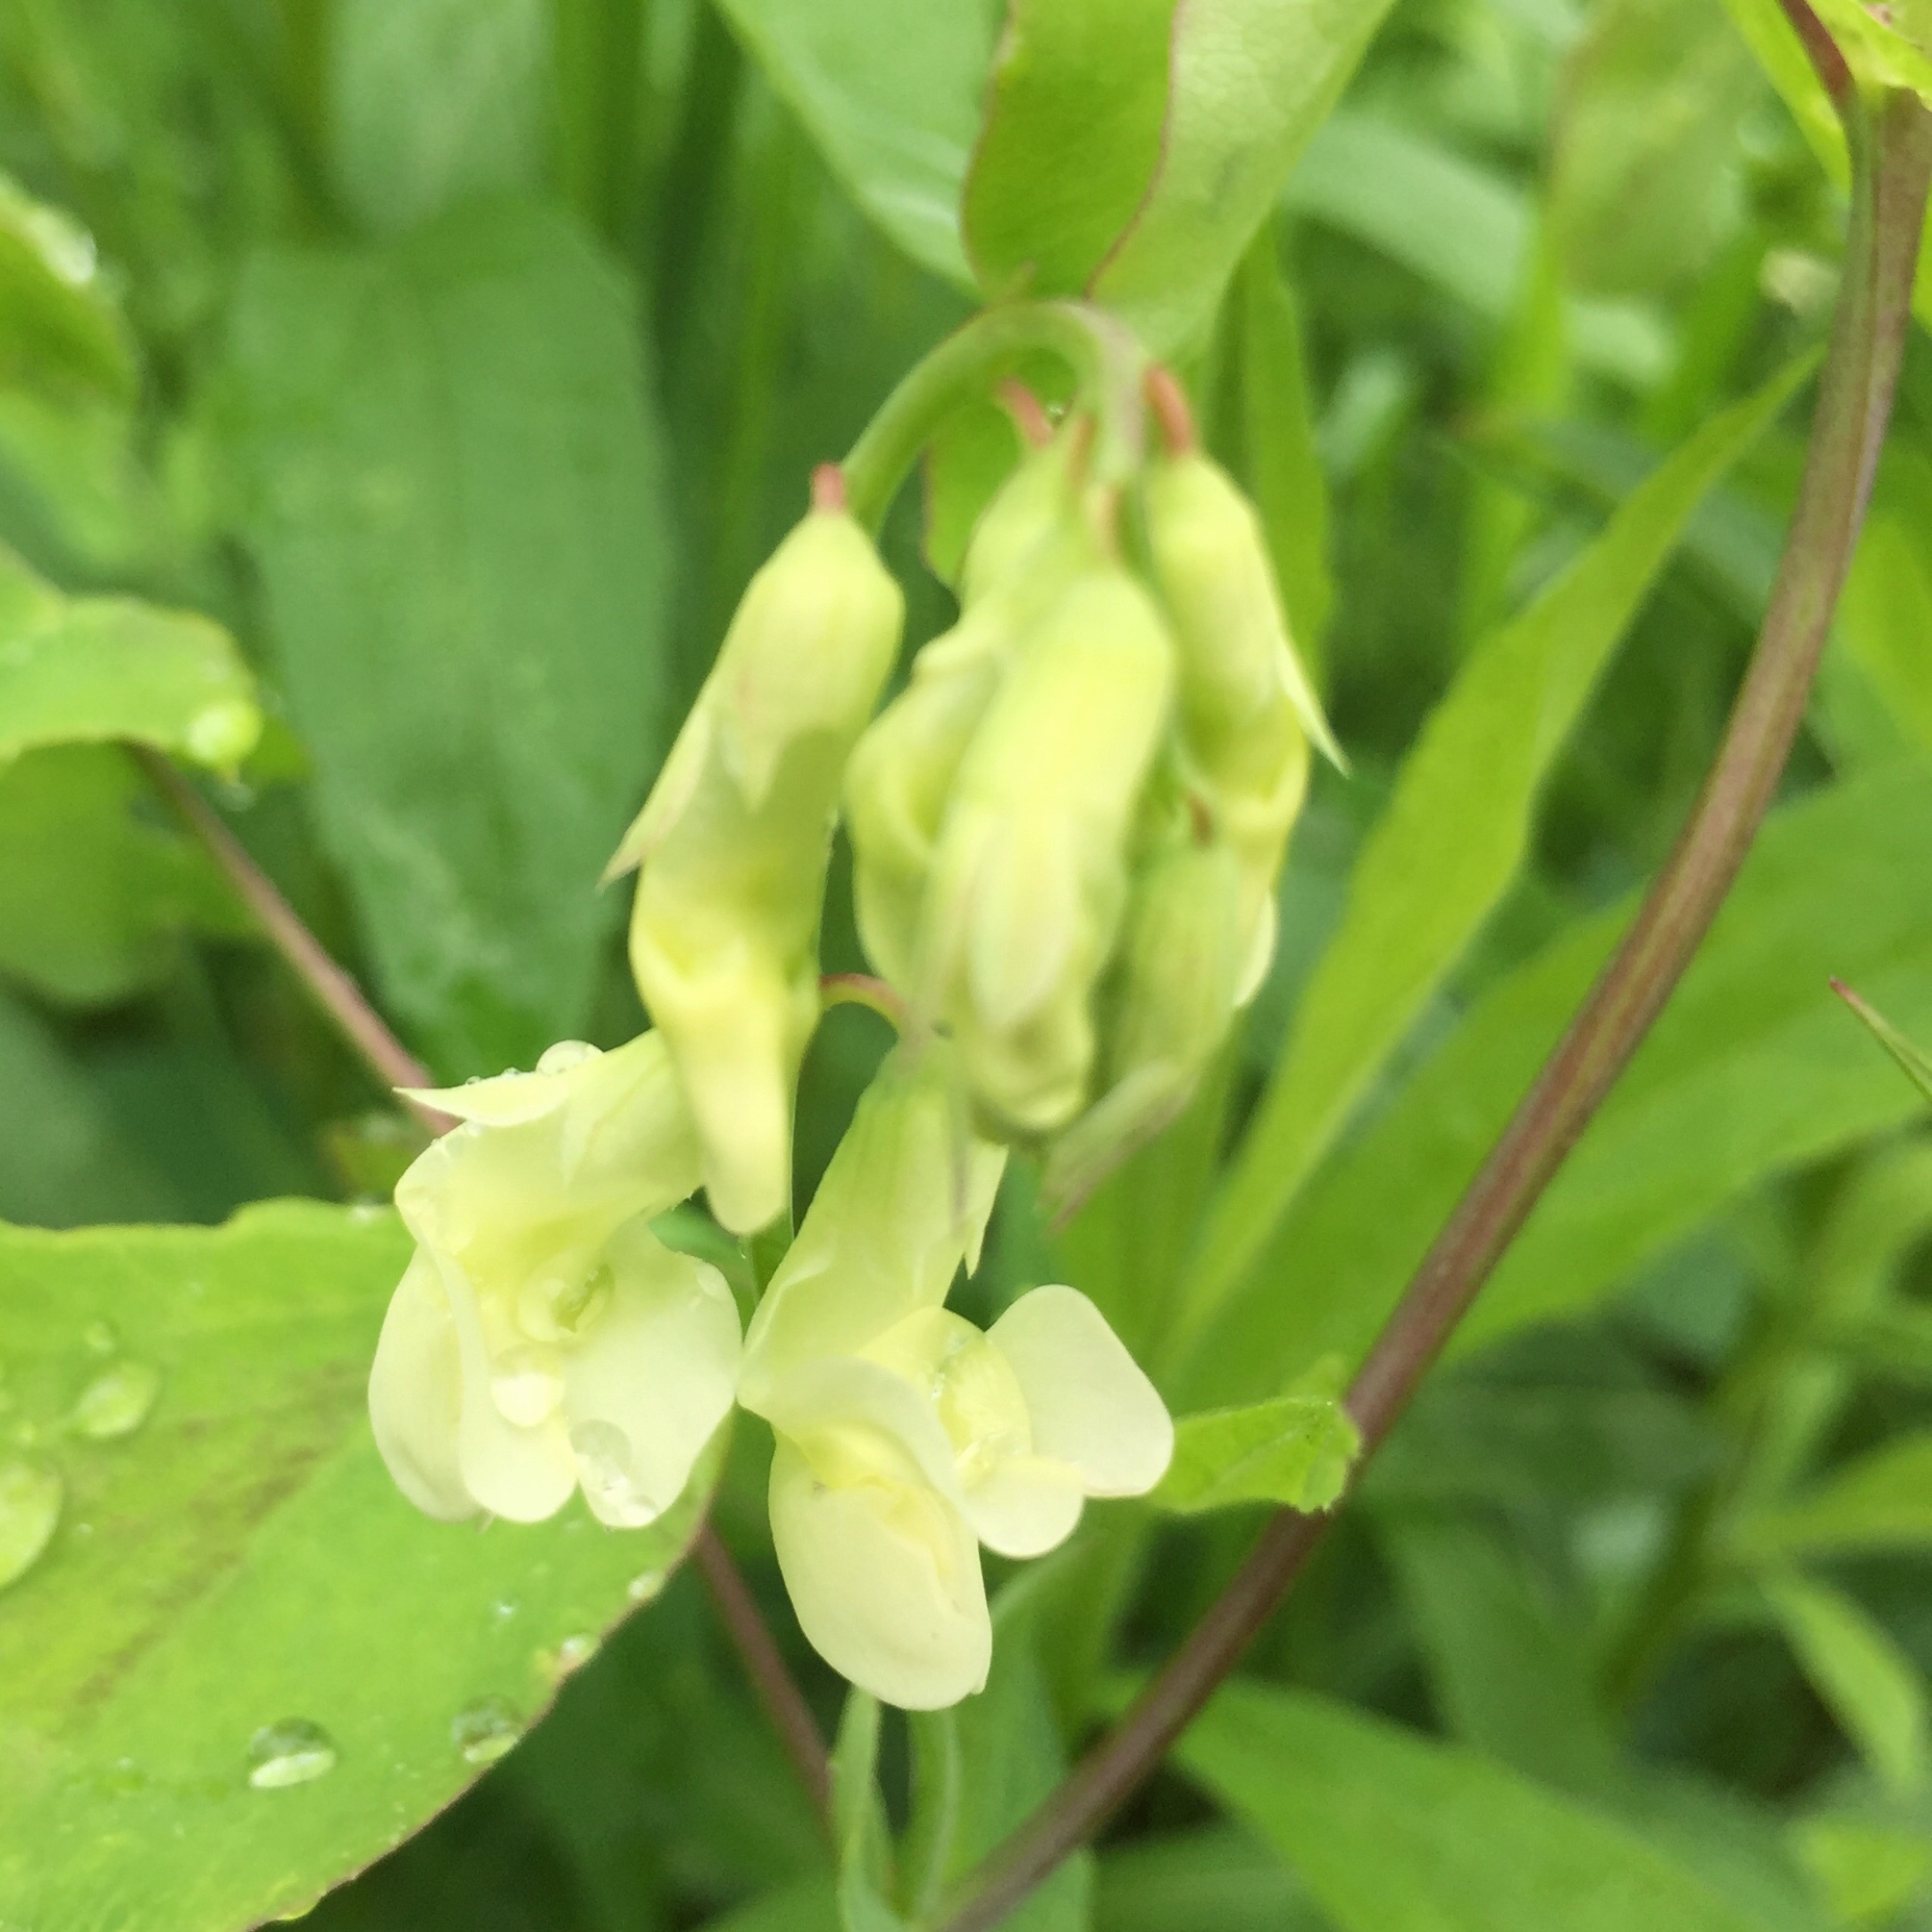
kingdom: Plantae
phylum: Tracheophyta
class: Magnoliopsida
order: Fabales
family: Fabaceae
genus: Lathyrus
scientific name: Lathyrus ochroleucus
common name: Pale vetchling
